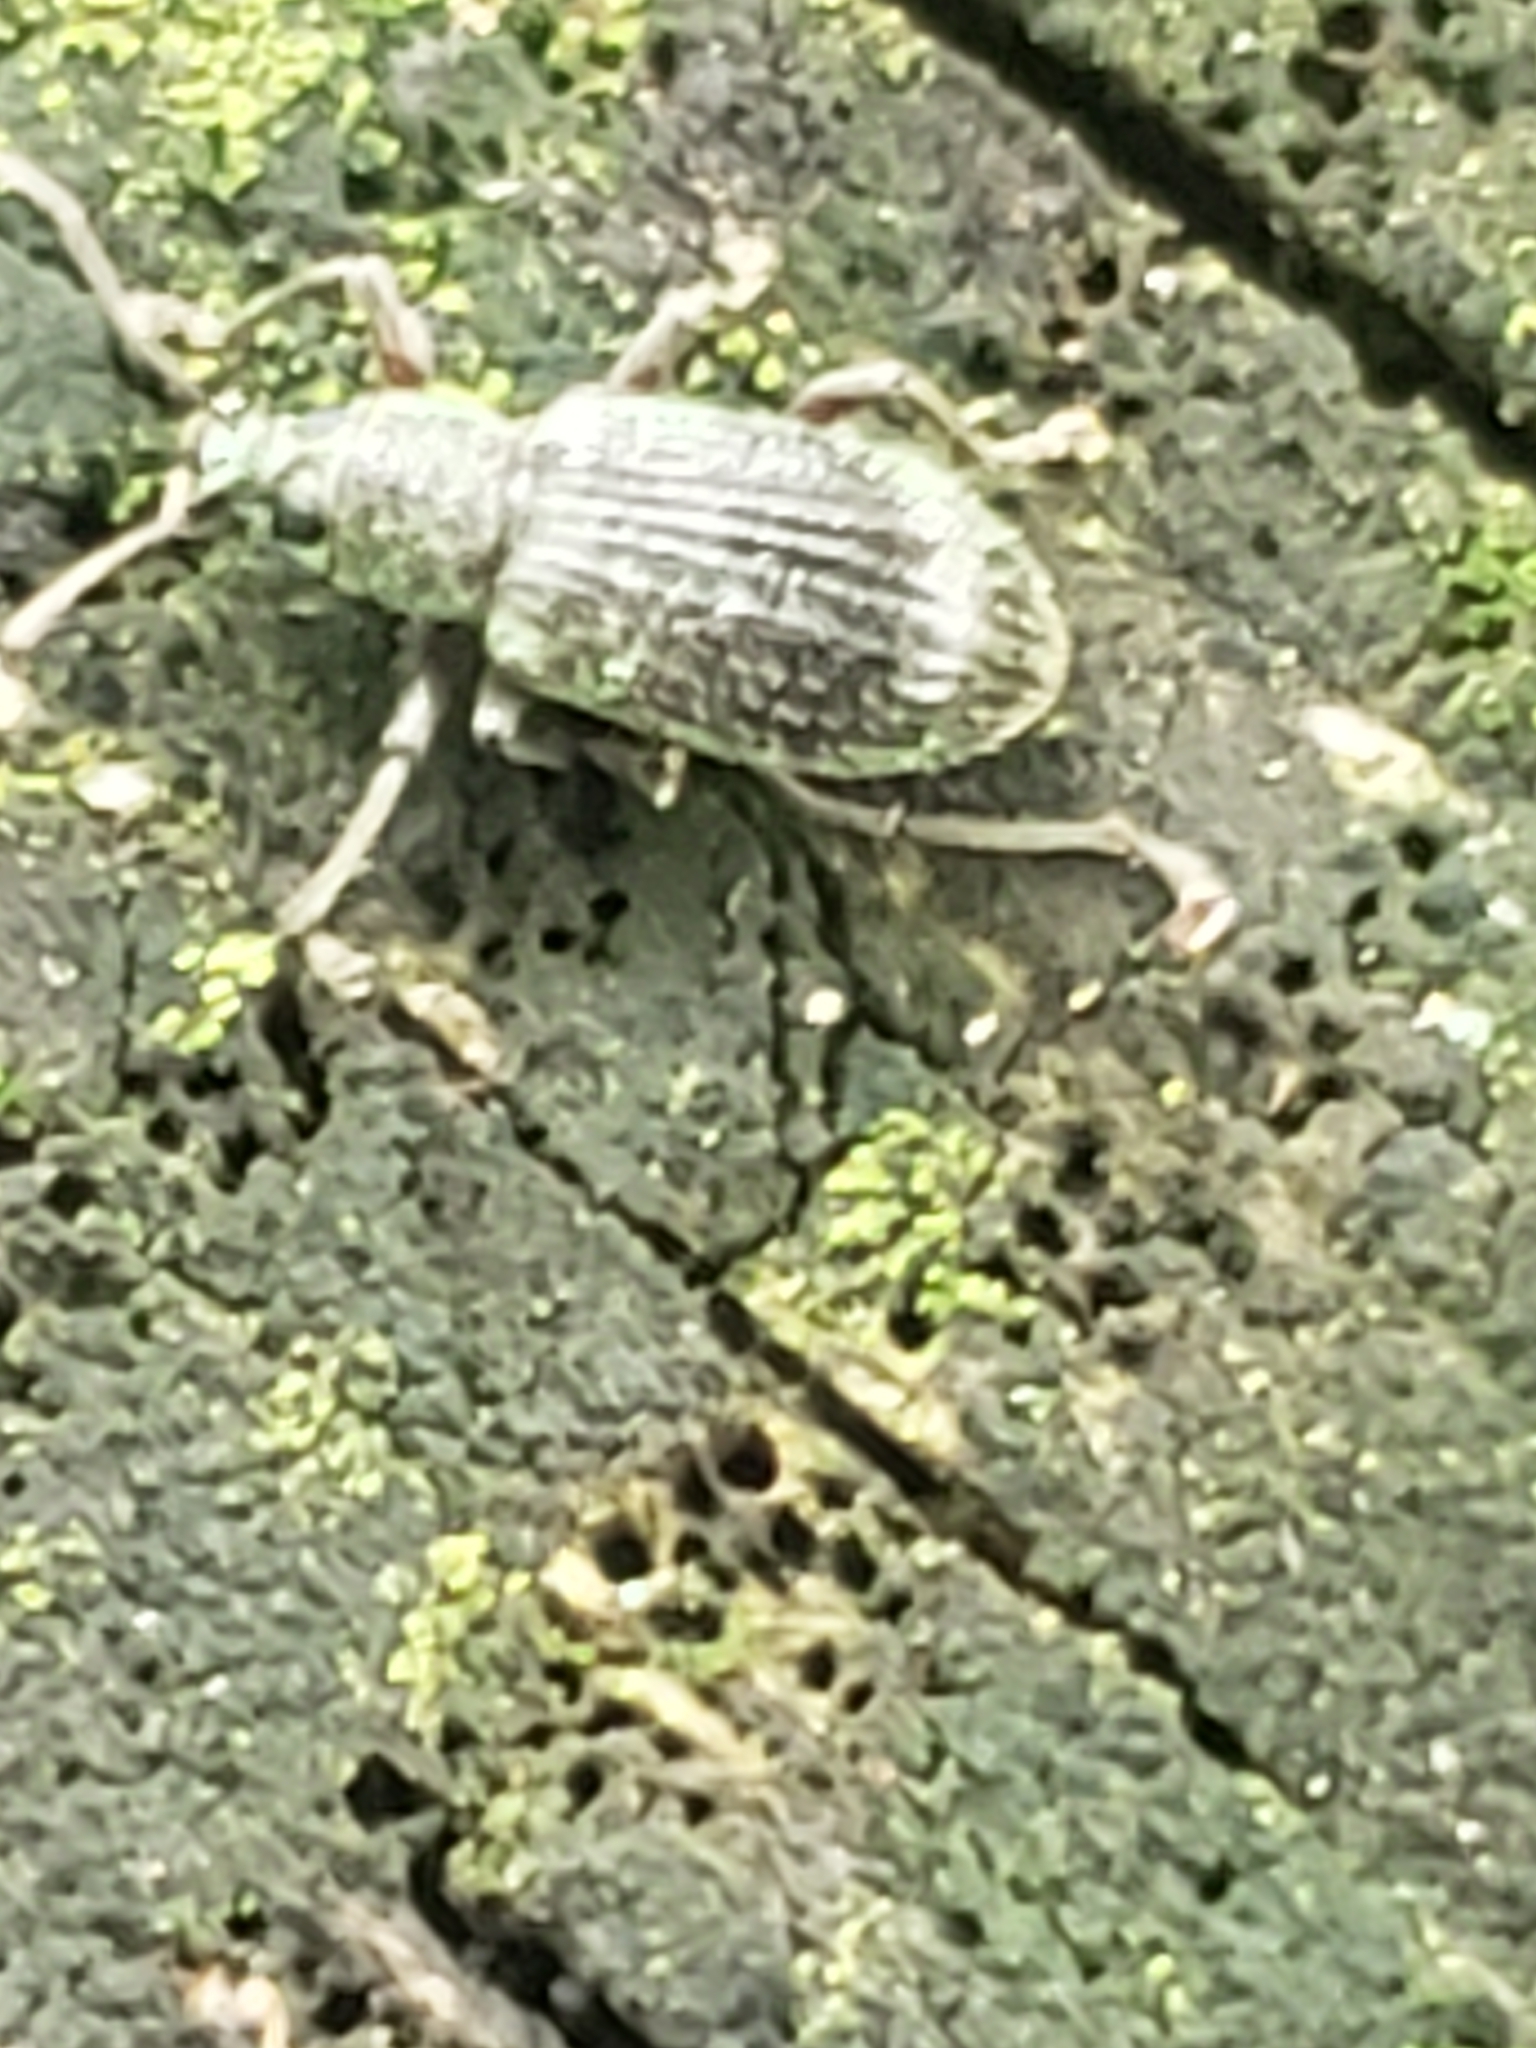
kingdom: Animalia
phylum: Arthropoda
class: Insecta
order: Coleoptera
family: Curculionidae
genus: Cyrtepistomus
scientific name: Cyrtepistomus castaneus
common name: Weevil
